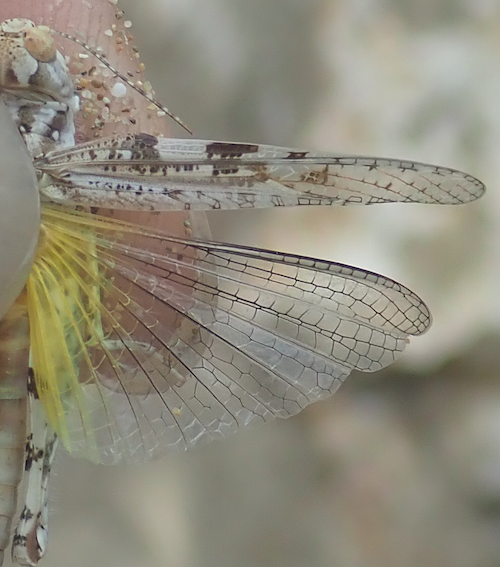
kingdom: Animalia
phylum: Arthropoda
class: Insecta
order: Orthoptera
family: Acrididae
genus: Acrotylus
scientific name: Acrotylus longipes
